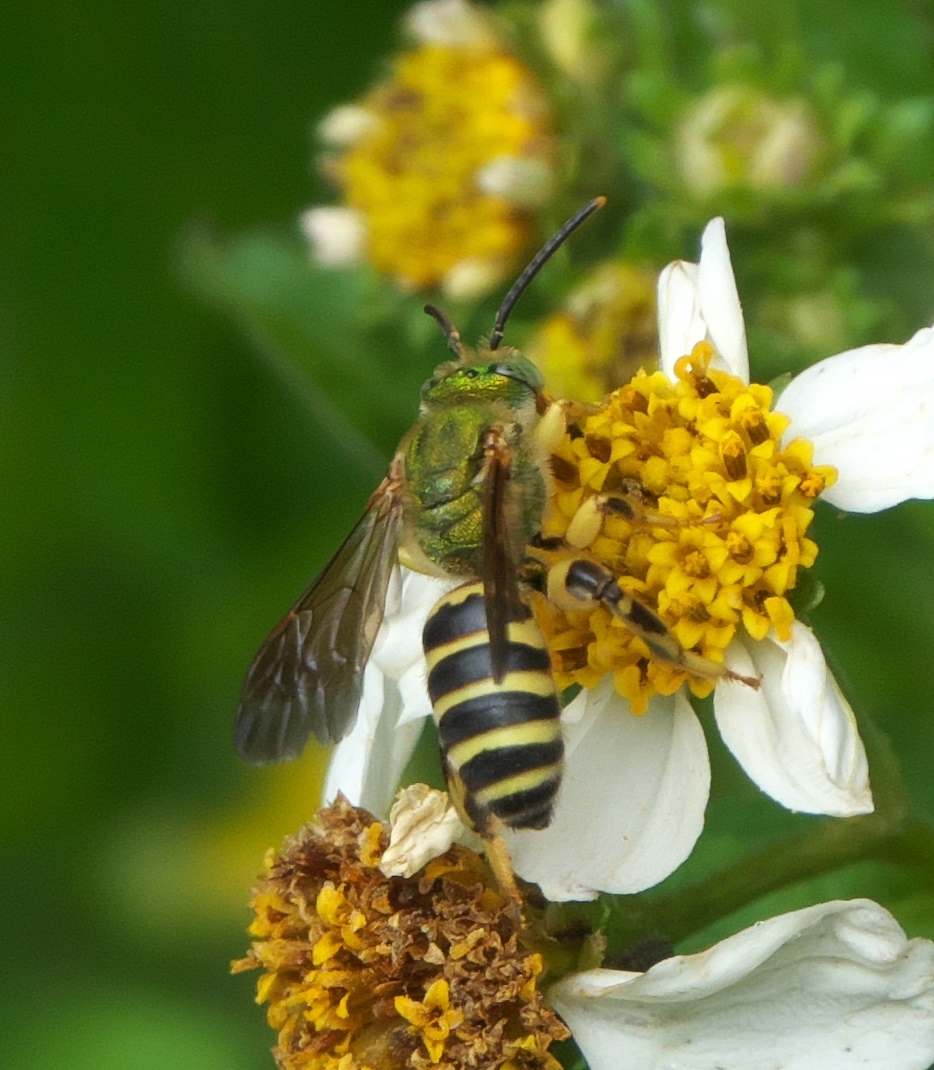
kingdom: Animalia
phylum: Arthropoda
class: Insecta
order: Hymenoptera
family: Halictidae
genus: Agapostemon
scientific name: Agapostemon splendens
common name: Brown-winged striped sweat bee
